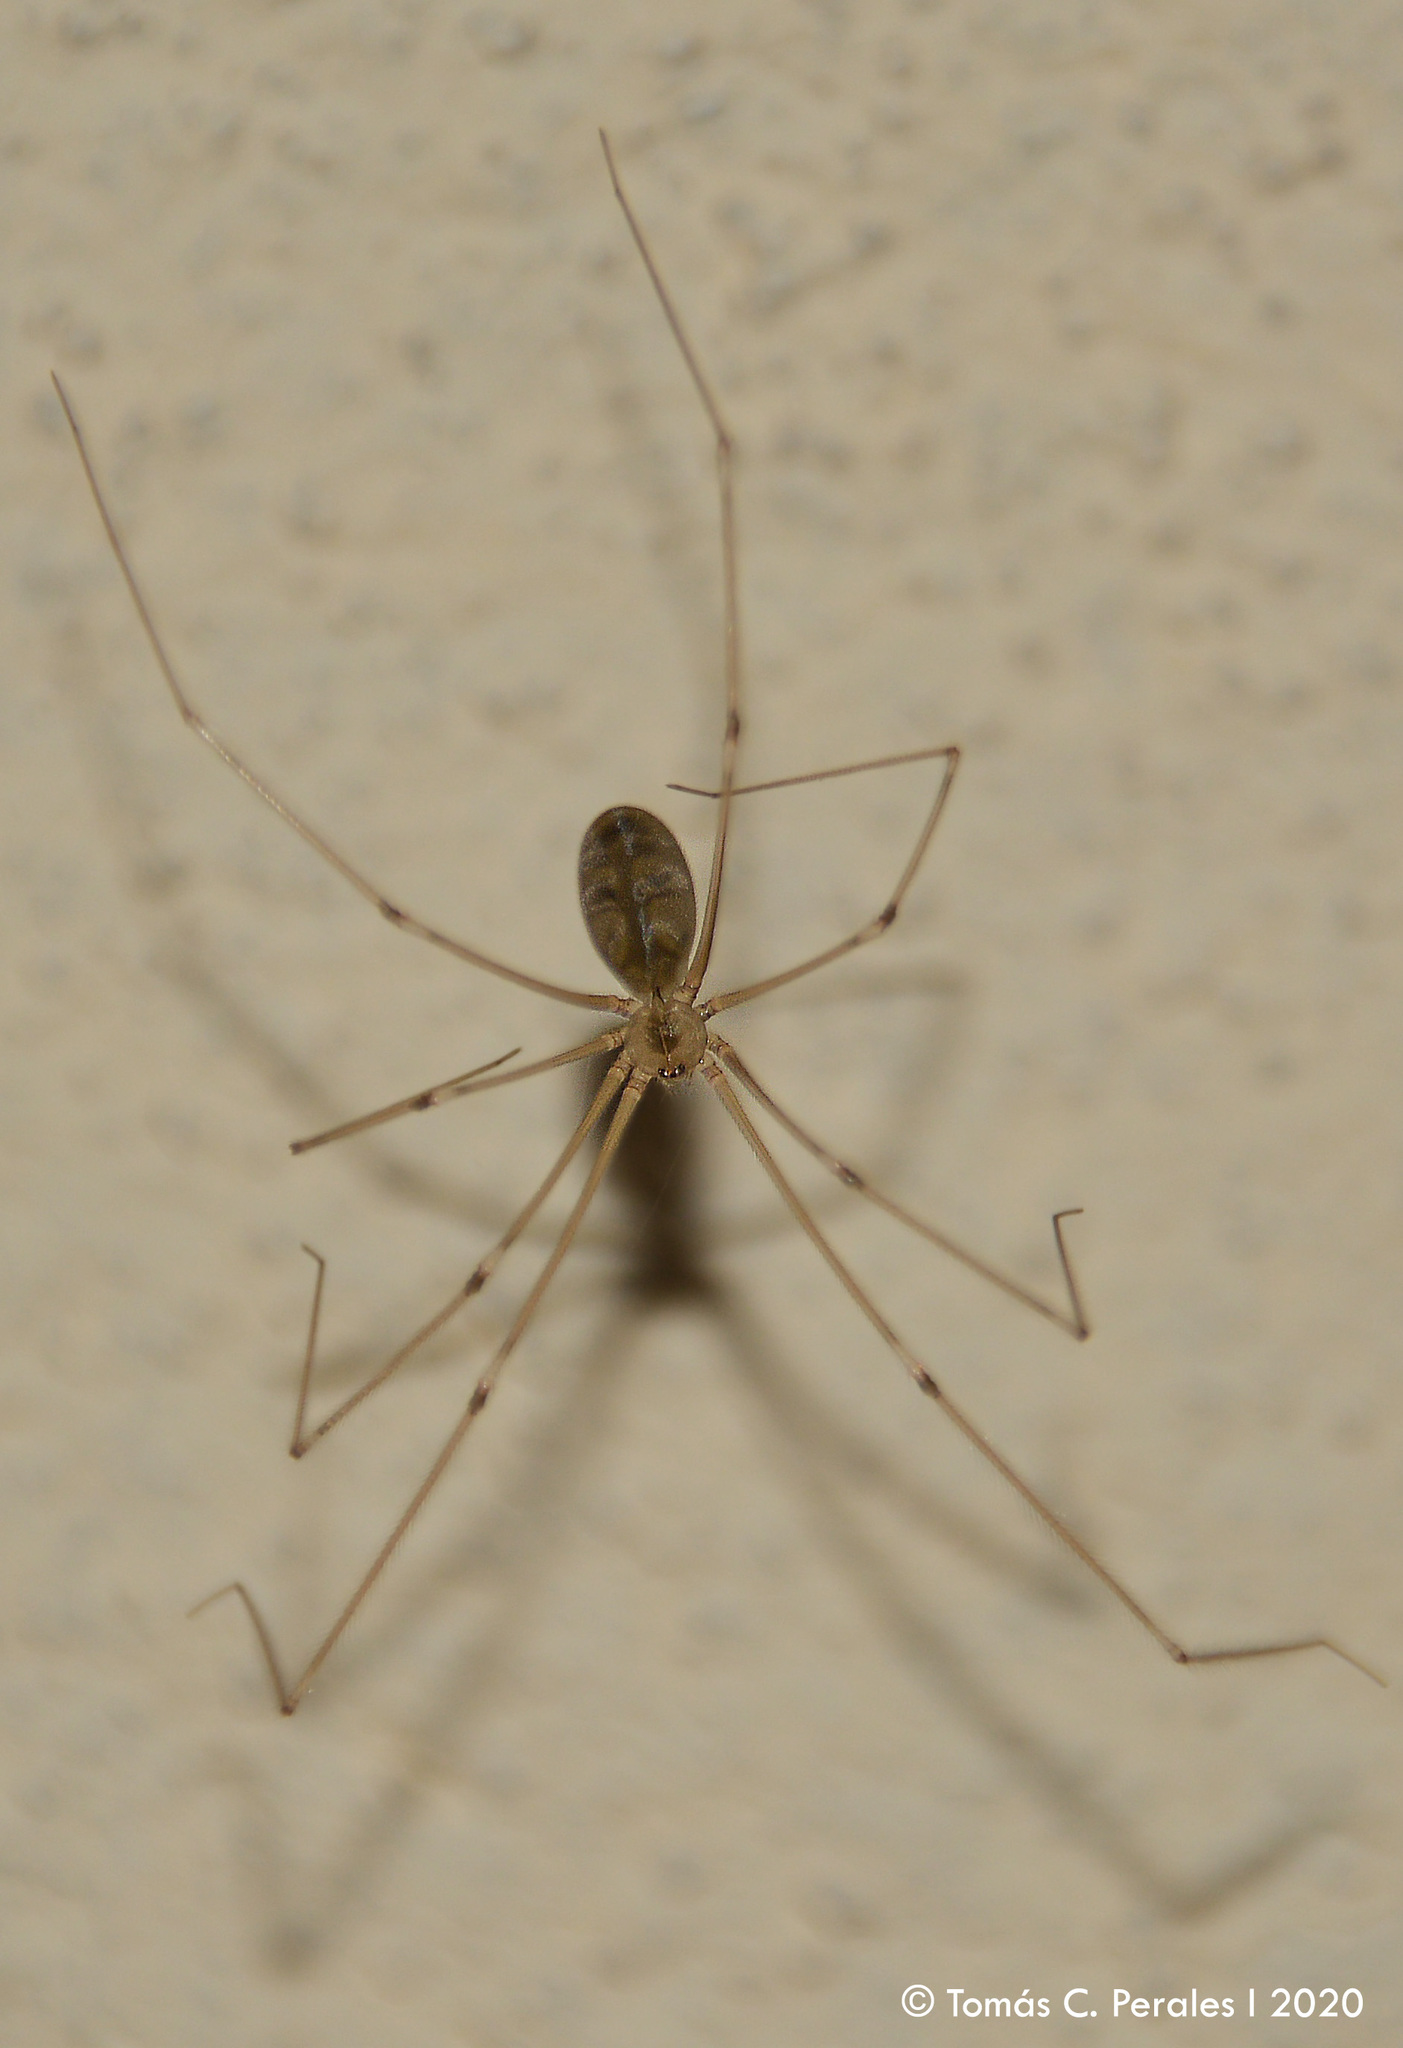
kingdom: Animalia
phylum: Arthropoda
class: Arachnida
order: Araneae
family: Pholcidae
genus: Pholcus
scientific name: Pholcus phalangioides
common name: Longbodied cellar spider
